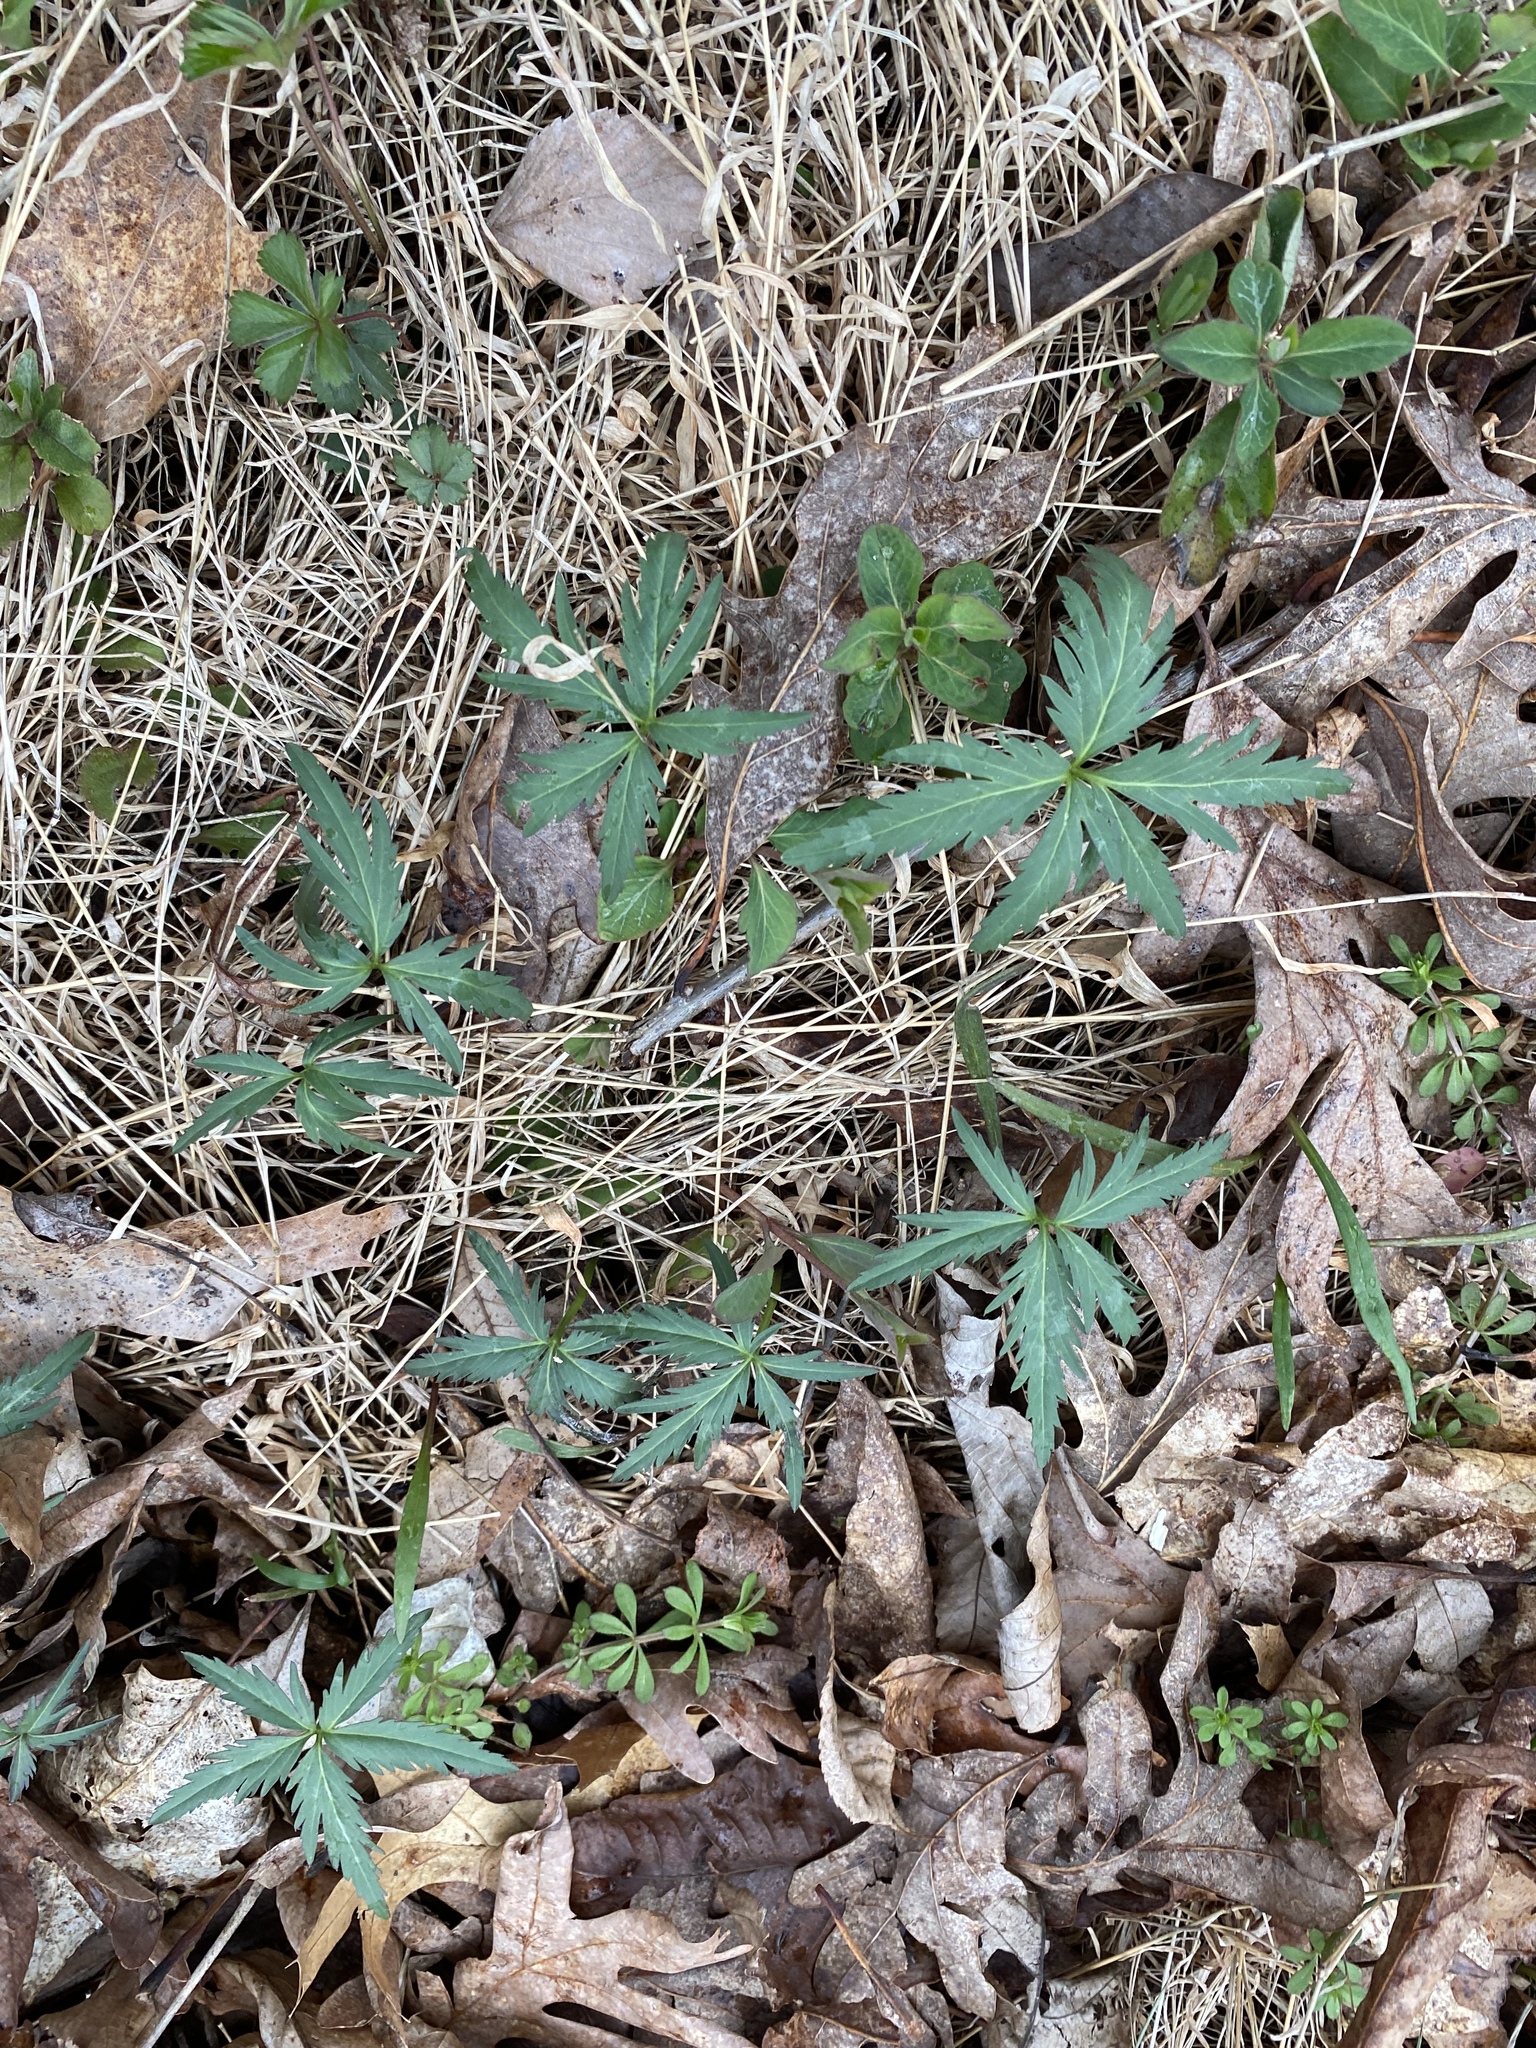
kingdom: Plantae
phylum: Tracheophyta
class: Magnoliopsida
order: Brassicales
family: Brassicaceae
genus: Cardamine
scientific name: Cardamine concatenata
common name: Cut-leaf toothcup
